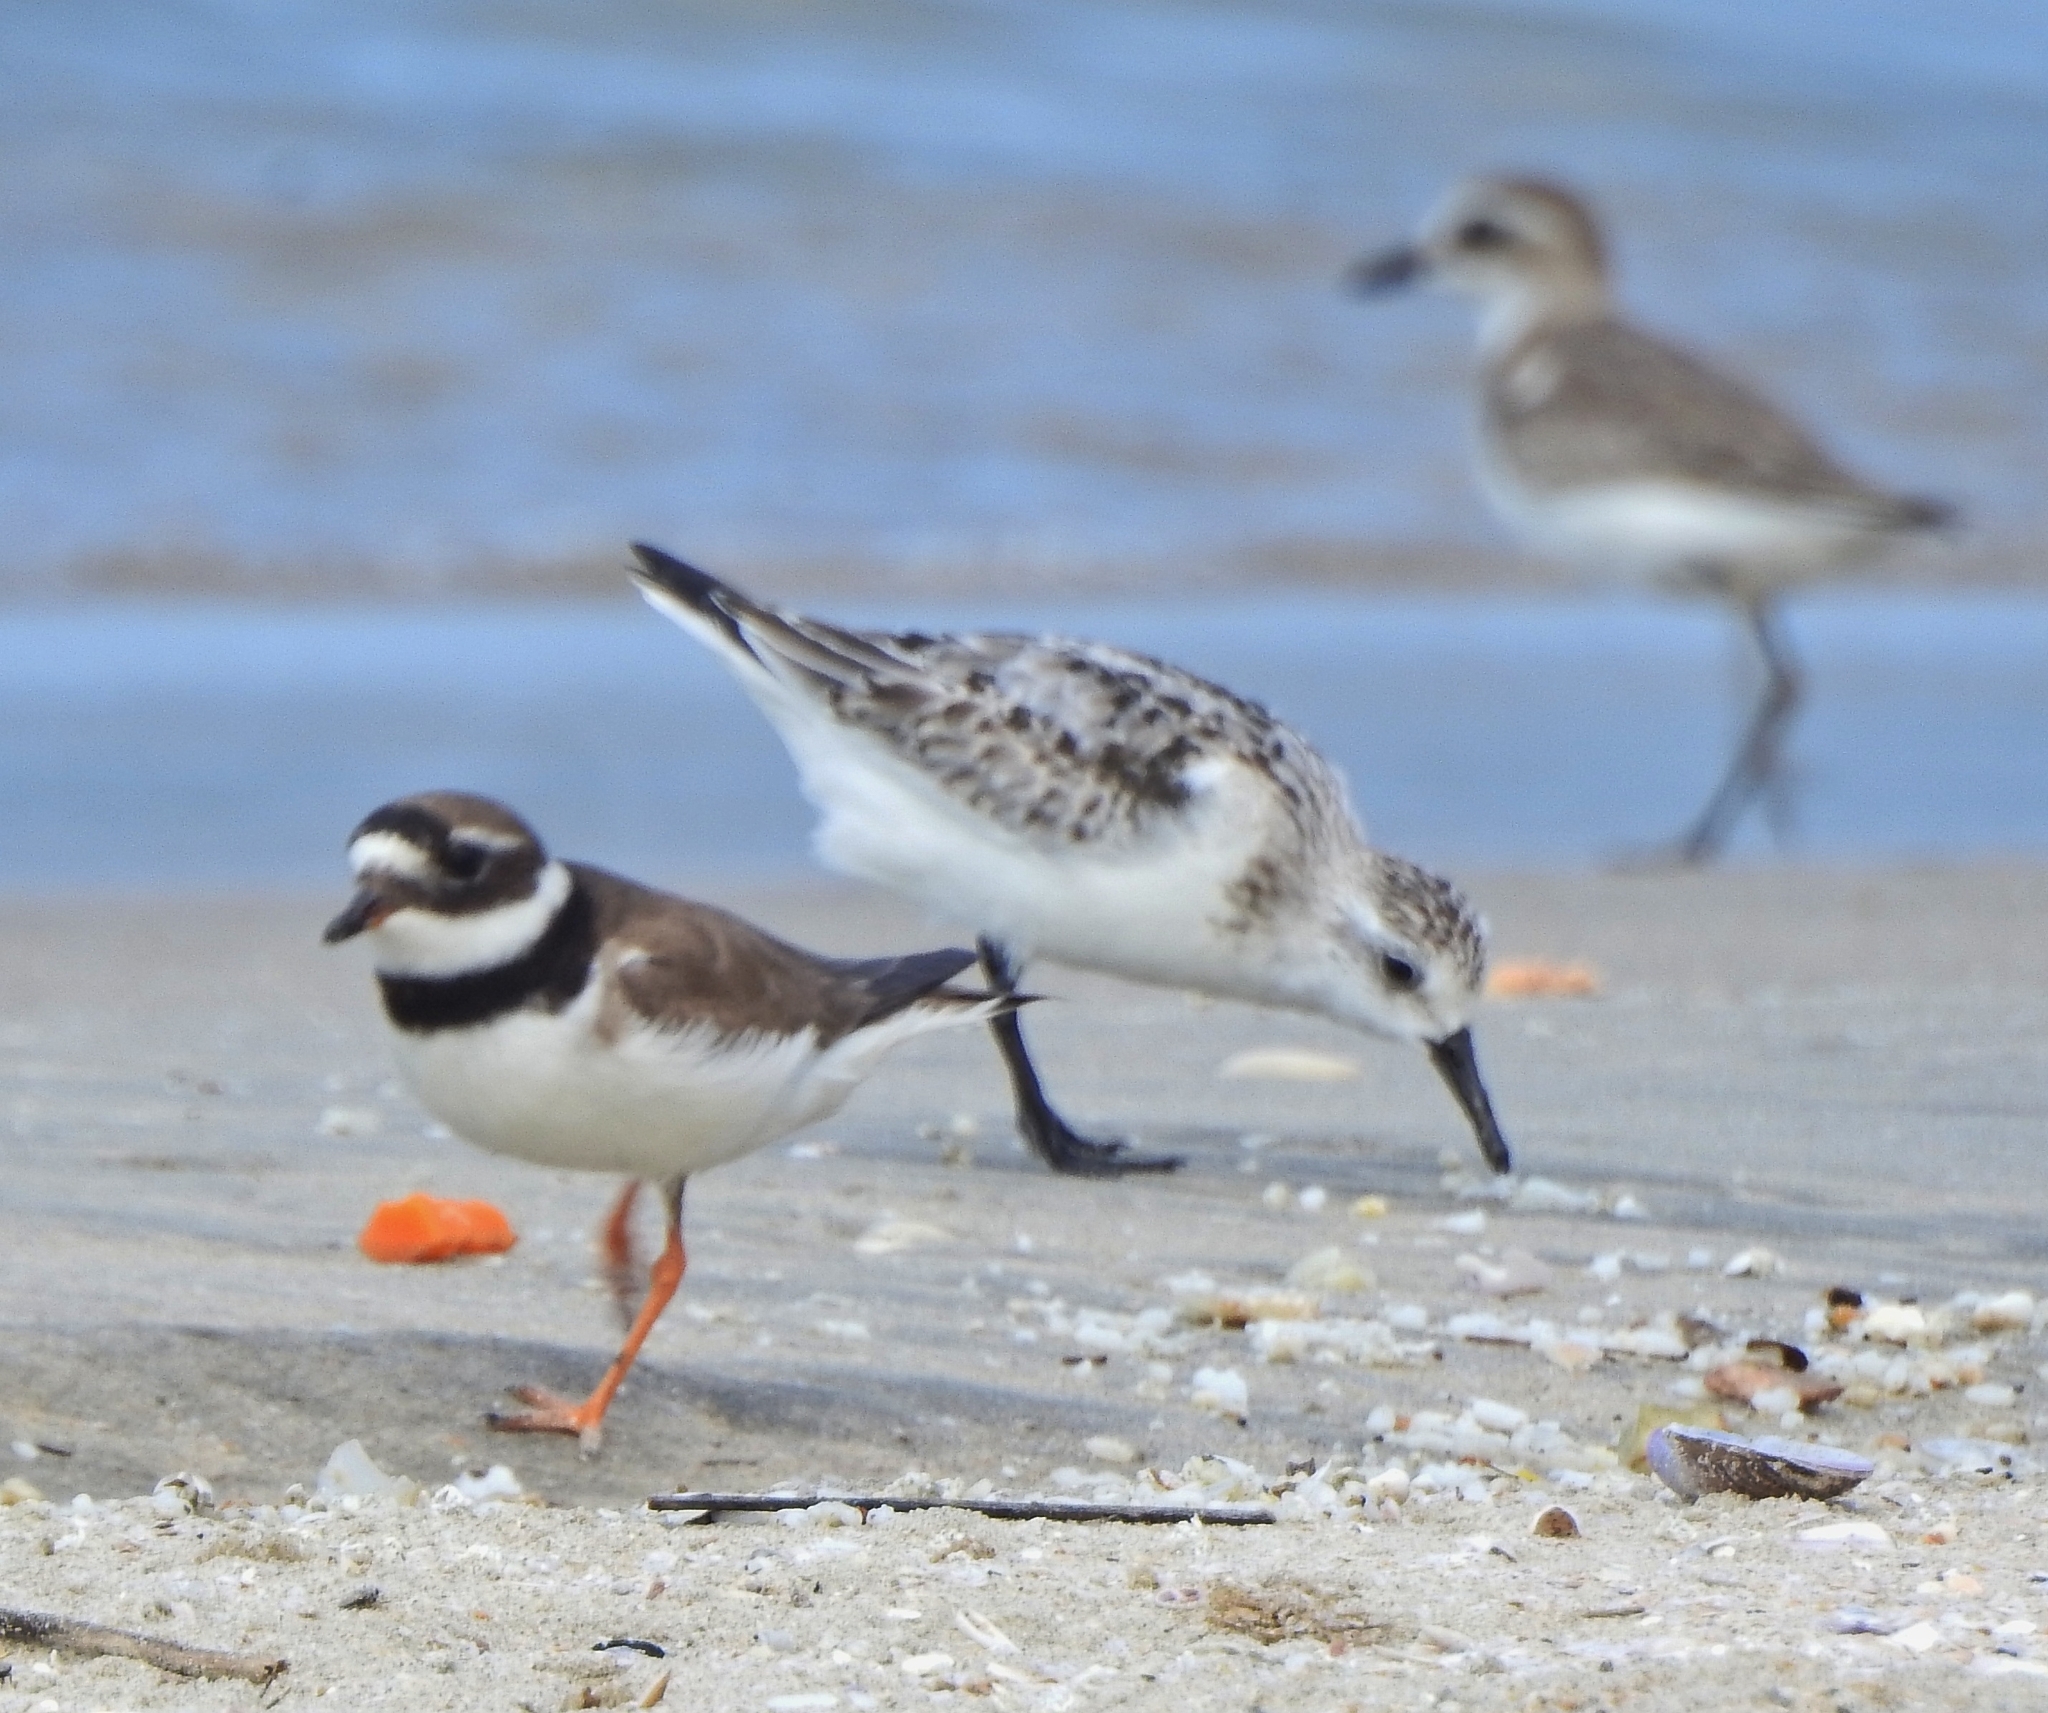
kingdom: Animalia
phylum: Chordata
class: Aves
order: Charadriiformes
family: Scolopacidae
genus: Calidris
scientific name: Calidris alba
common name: Sanderling
